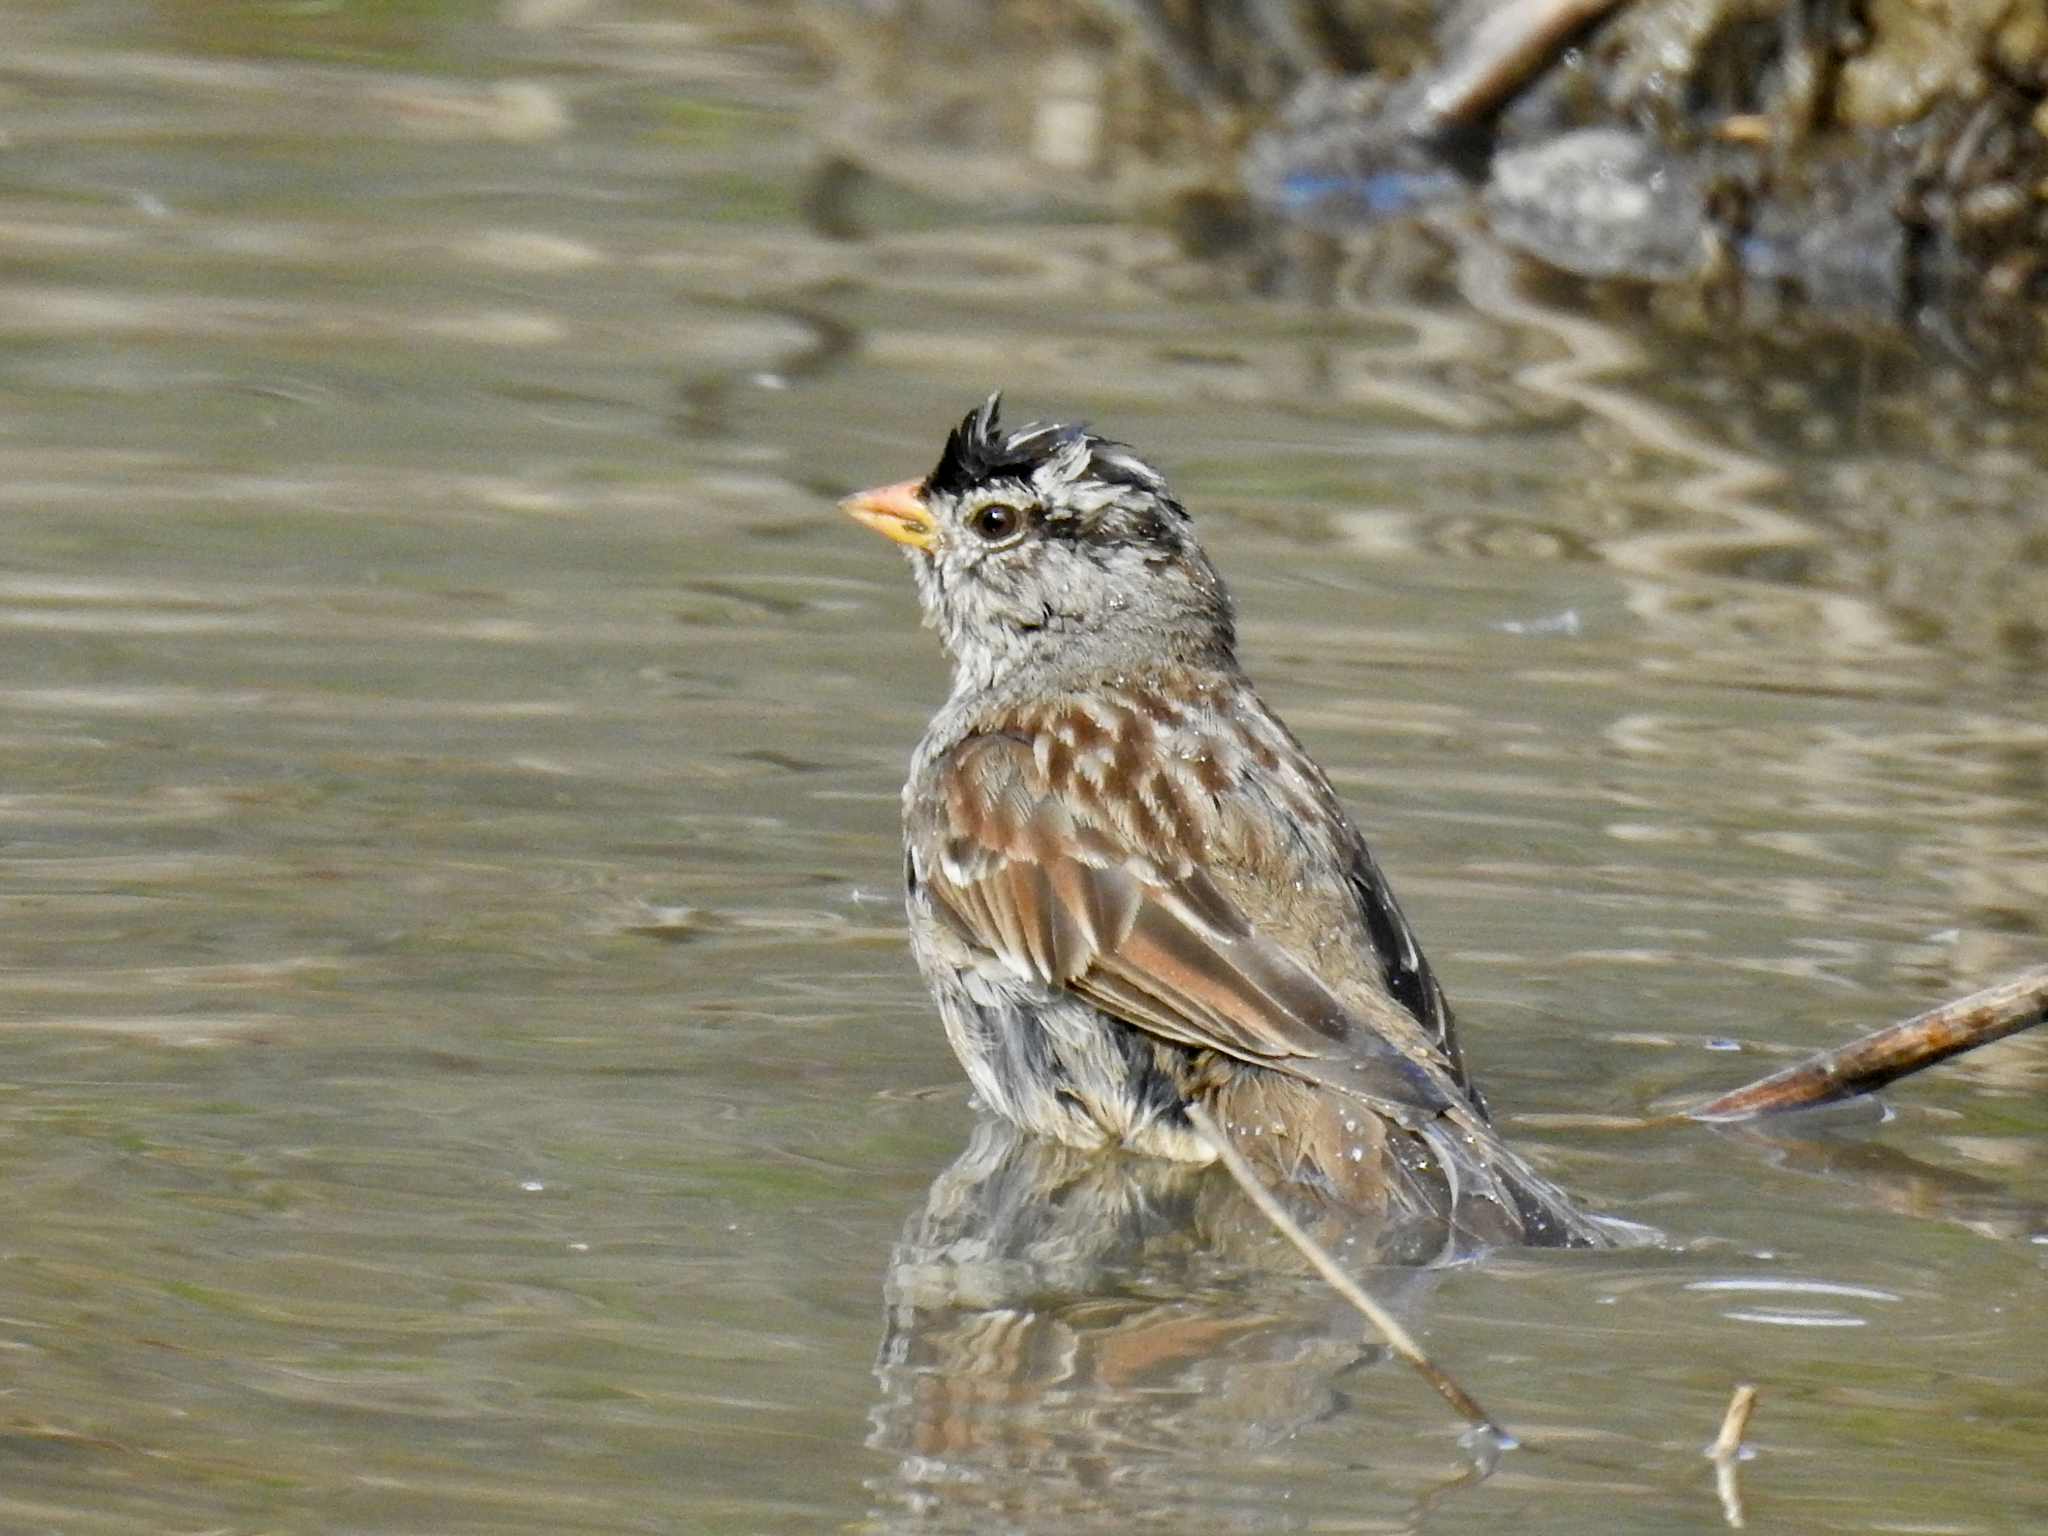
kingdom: Animalia
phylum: Chordata
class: Aves
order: Passeriformes
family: Passerellidae
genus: Zonotrichia
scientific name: Zonotrichia leucophrys
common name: White-crowned sparrow
